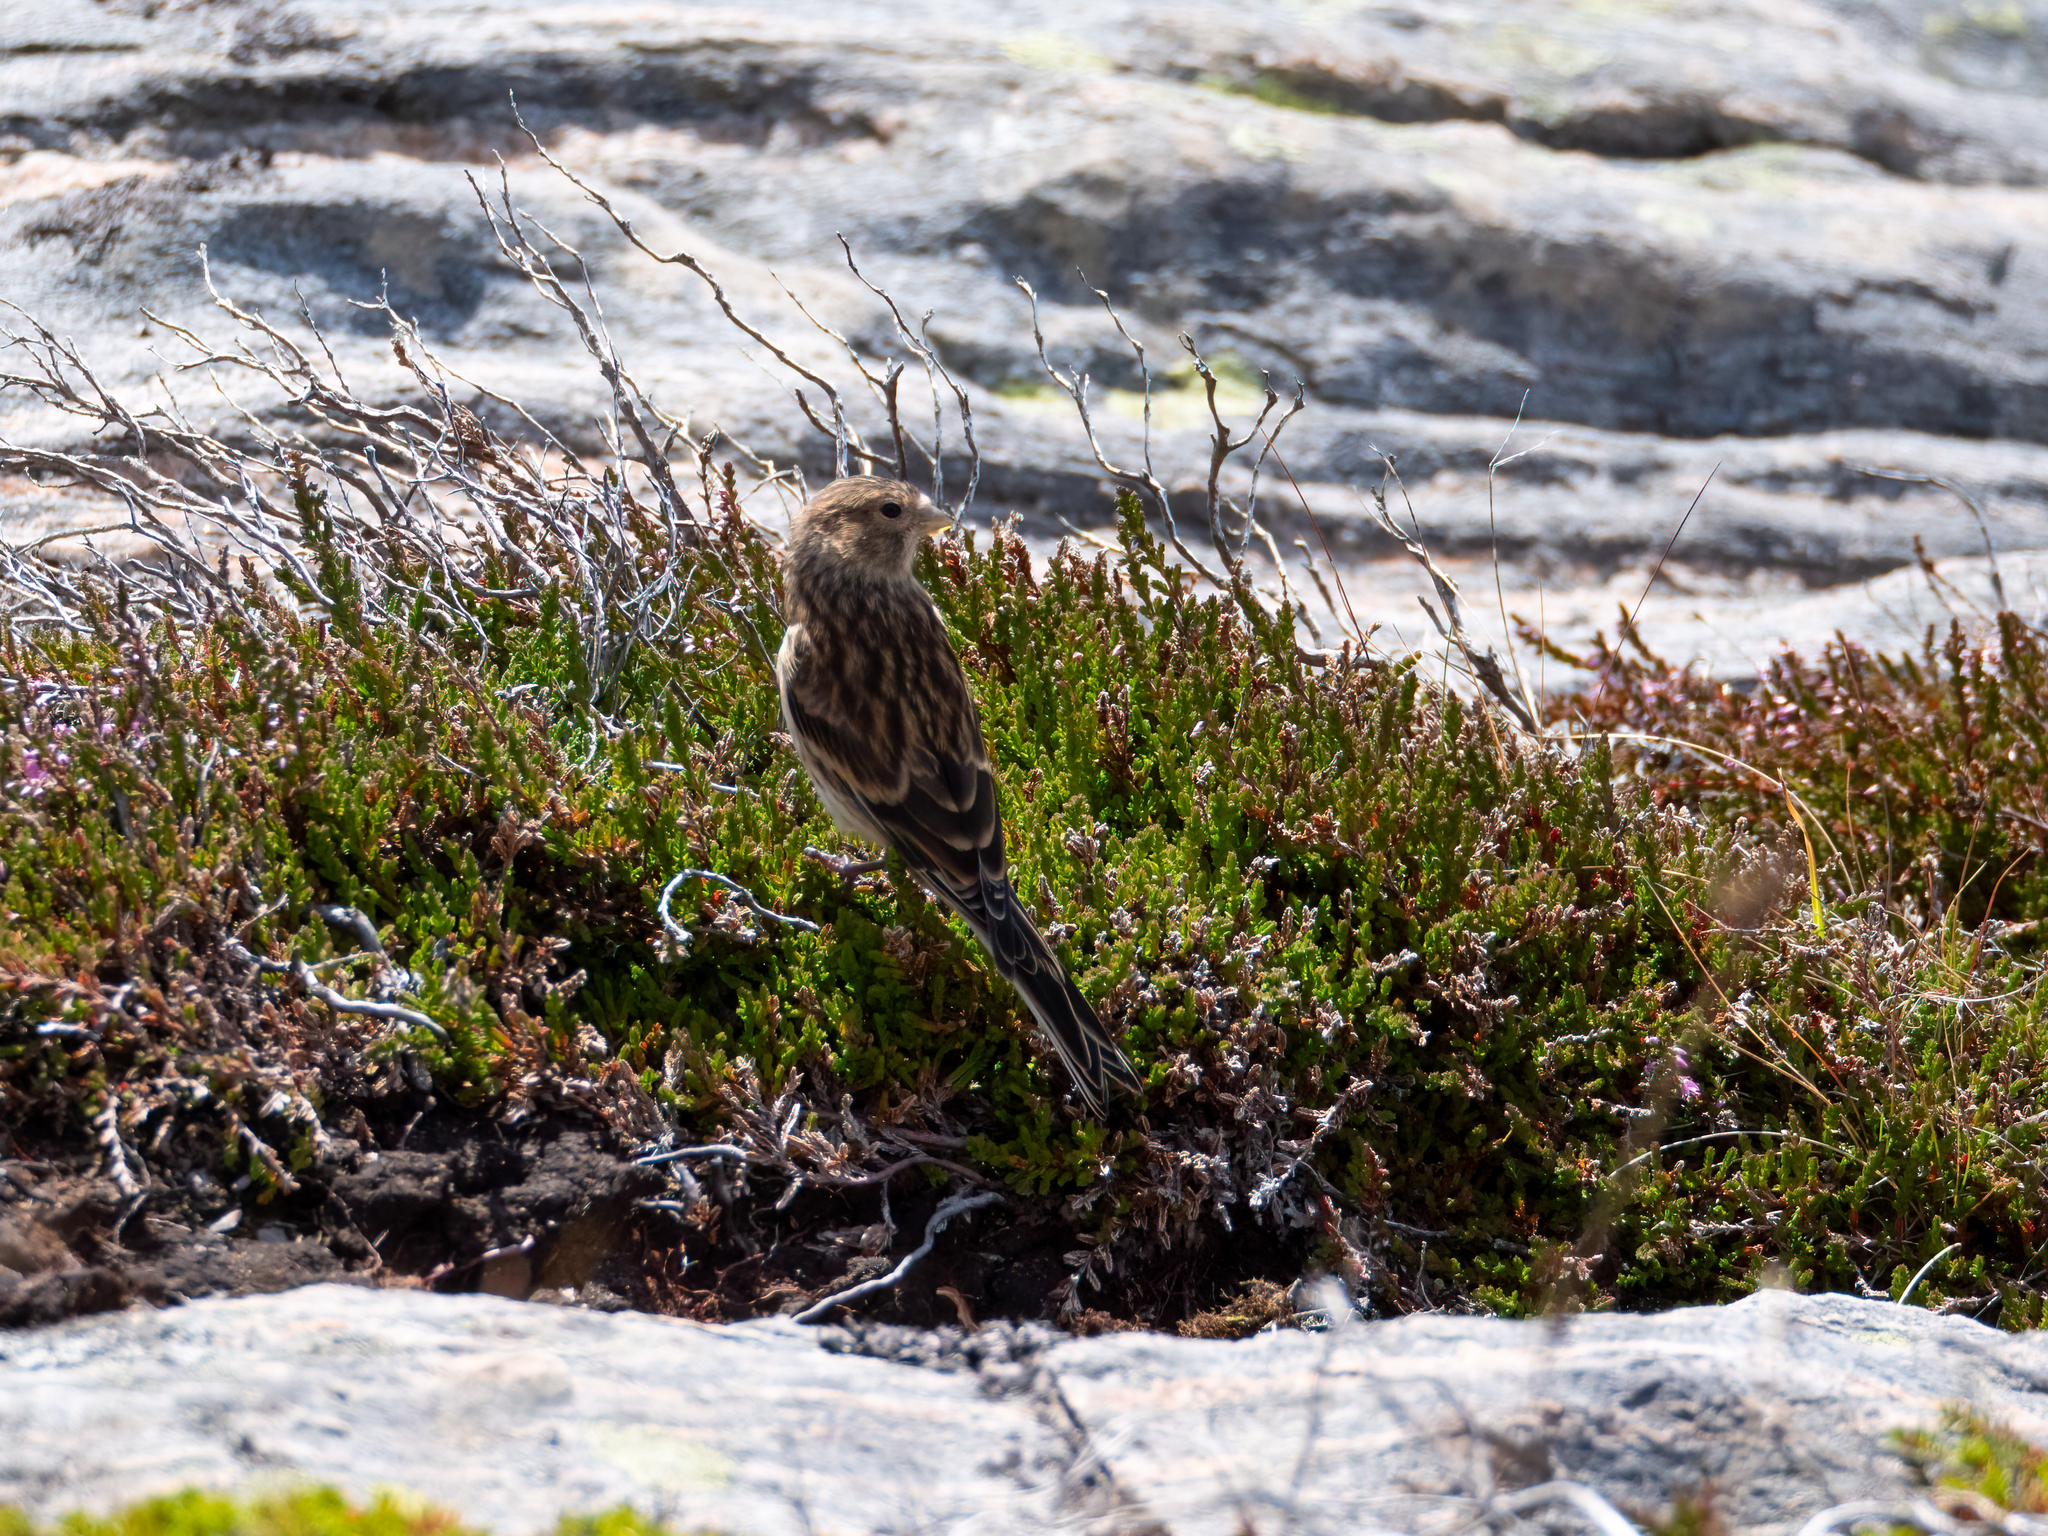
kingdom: Animalia
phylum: Chordata
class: Aves
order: Passeriformes
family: Fringillidae
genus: Linaria
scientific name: Linaria flavirostris
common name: Twite
